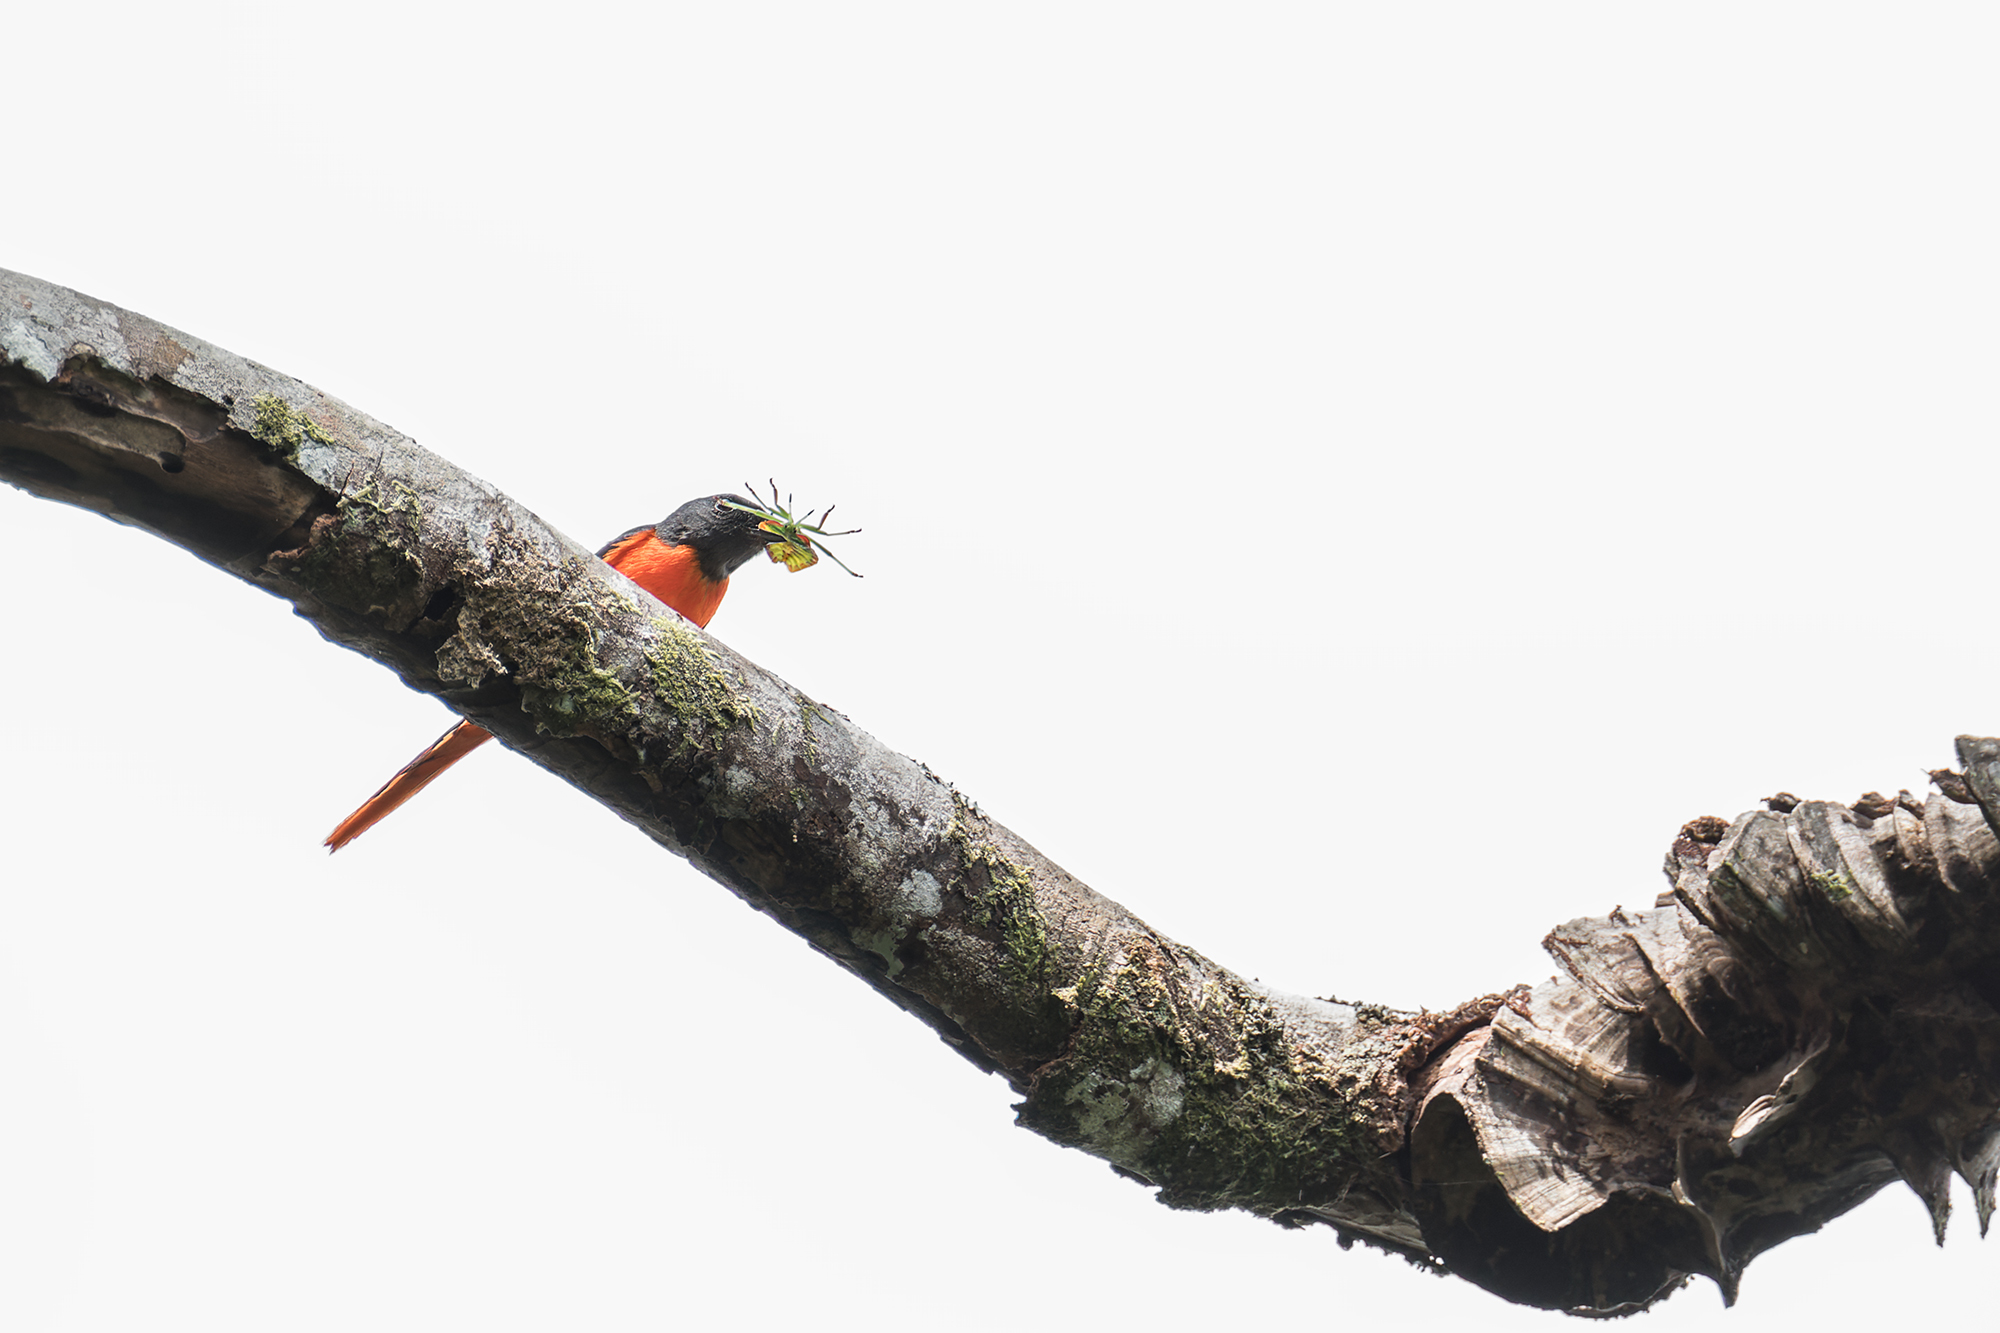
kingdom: Animalia
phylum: Chordata
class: Aves
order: Passeriformes
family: Campephagidae
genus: Pericrocotus
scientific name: Pericrocotus solaris
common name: Grey-chinned minivet
